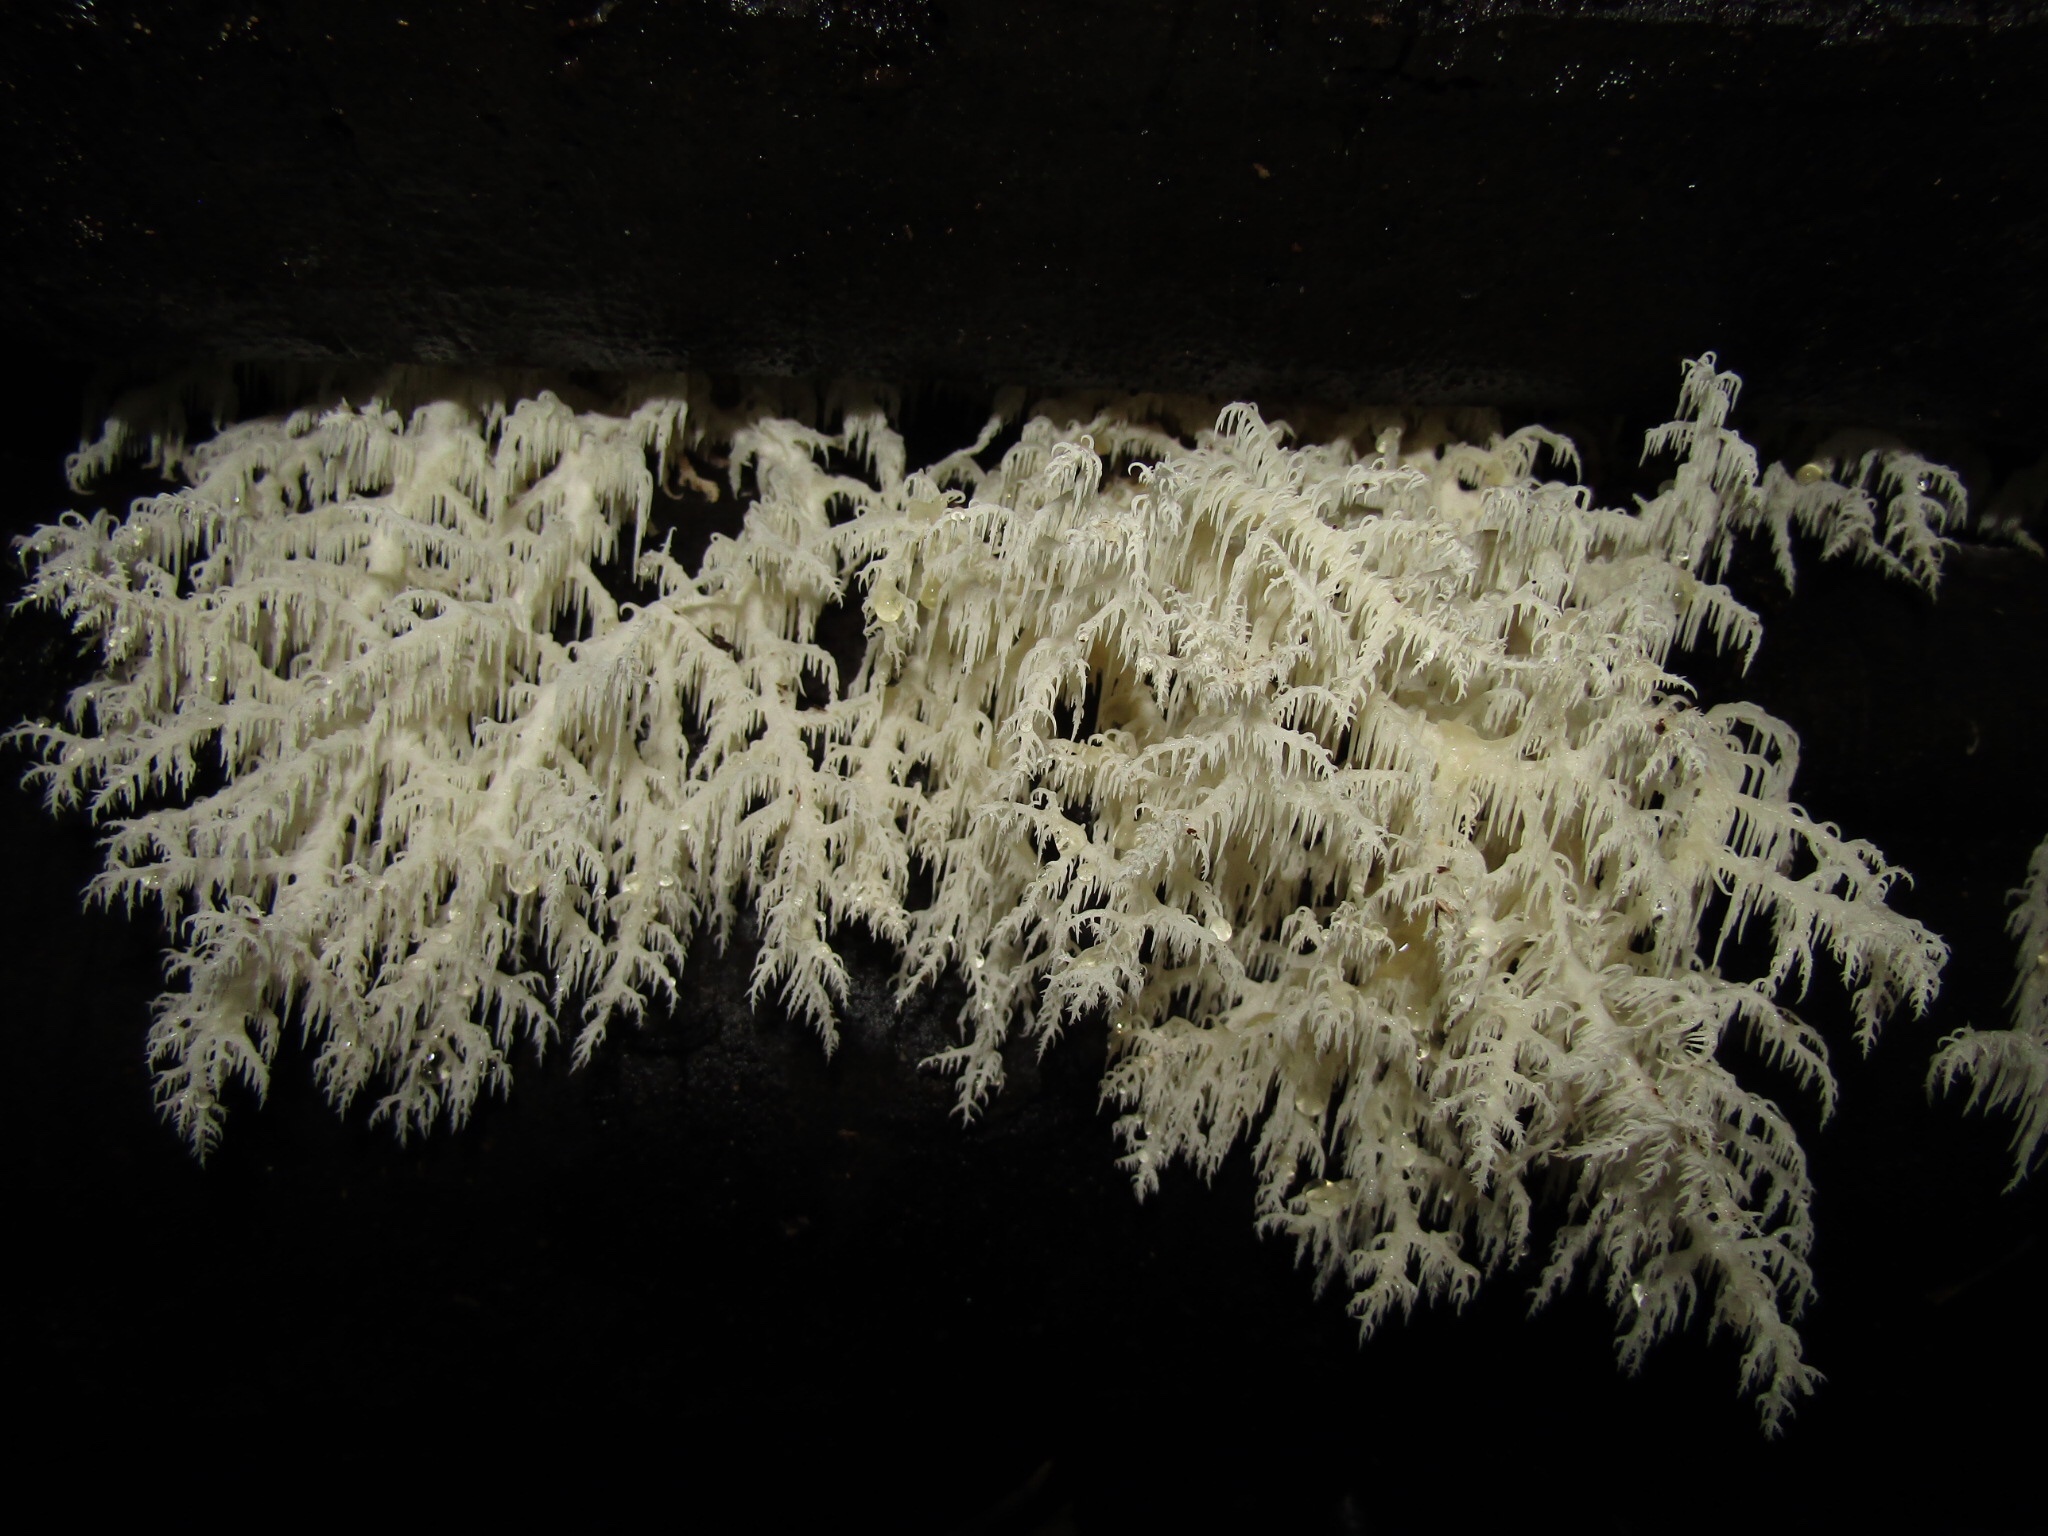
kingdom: Fungi
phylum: Basidiomycota
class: Agaricomycetes
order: Russulales
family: Hericiaceae
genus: Hericium
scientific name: Hericium coralloides
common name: Coral tooth
